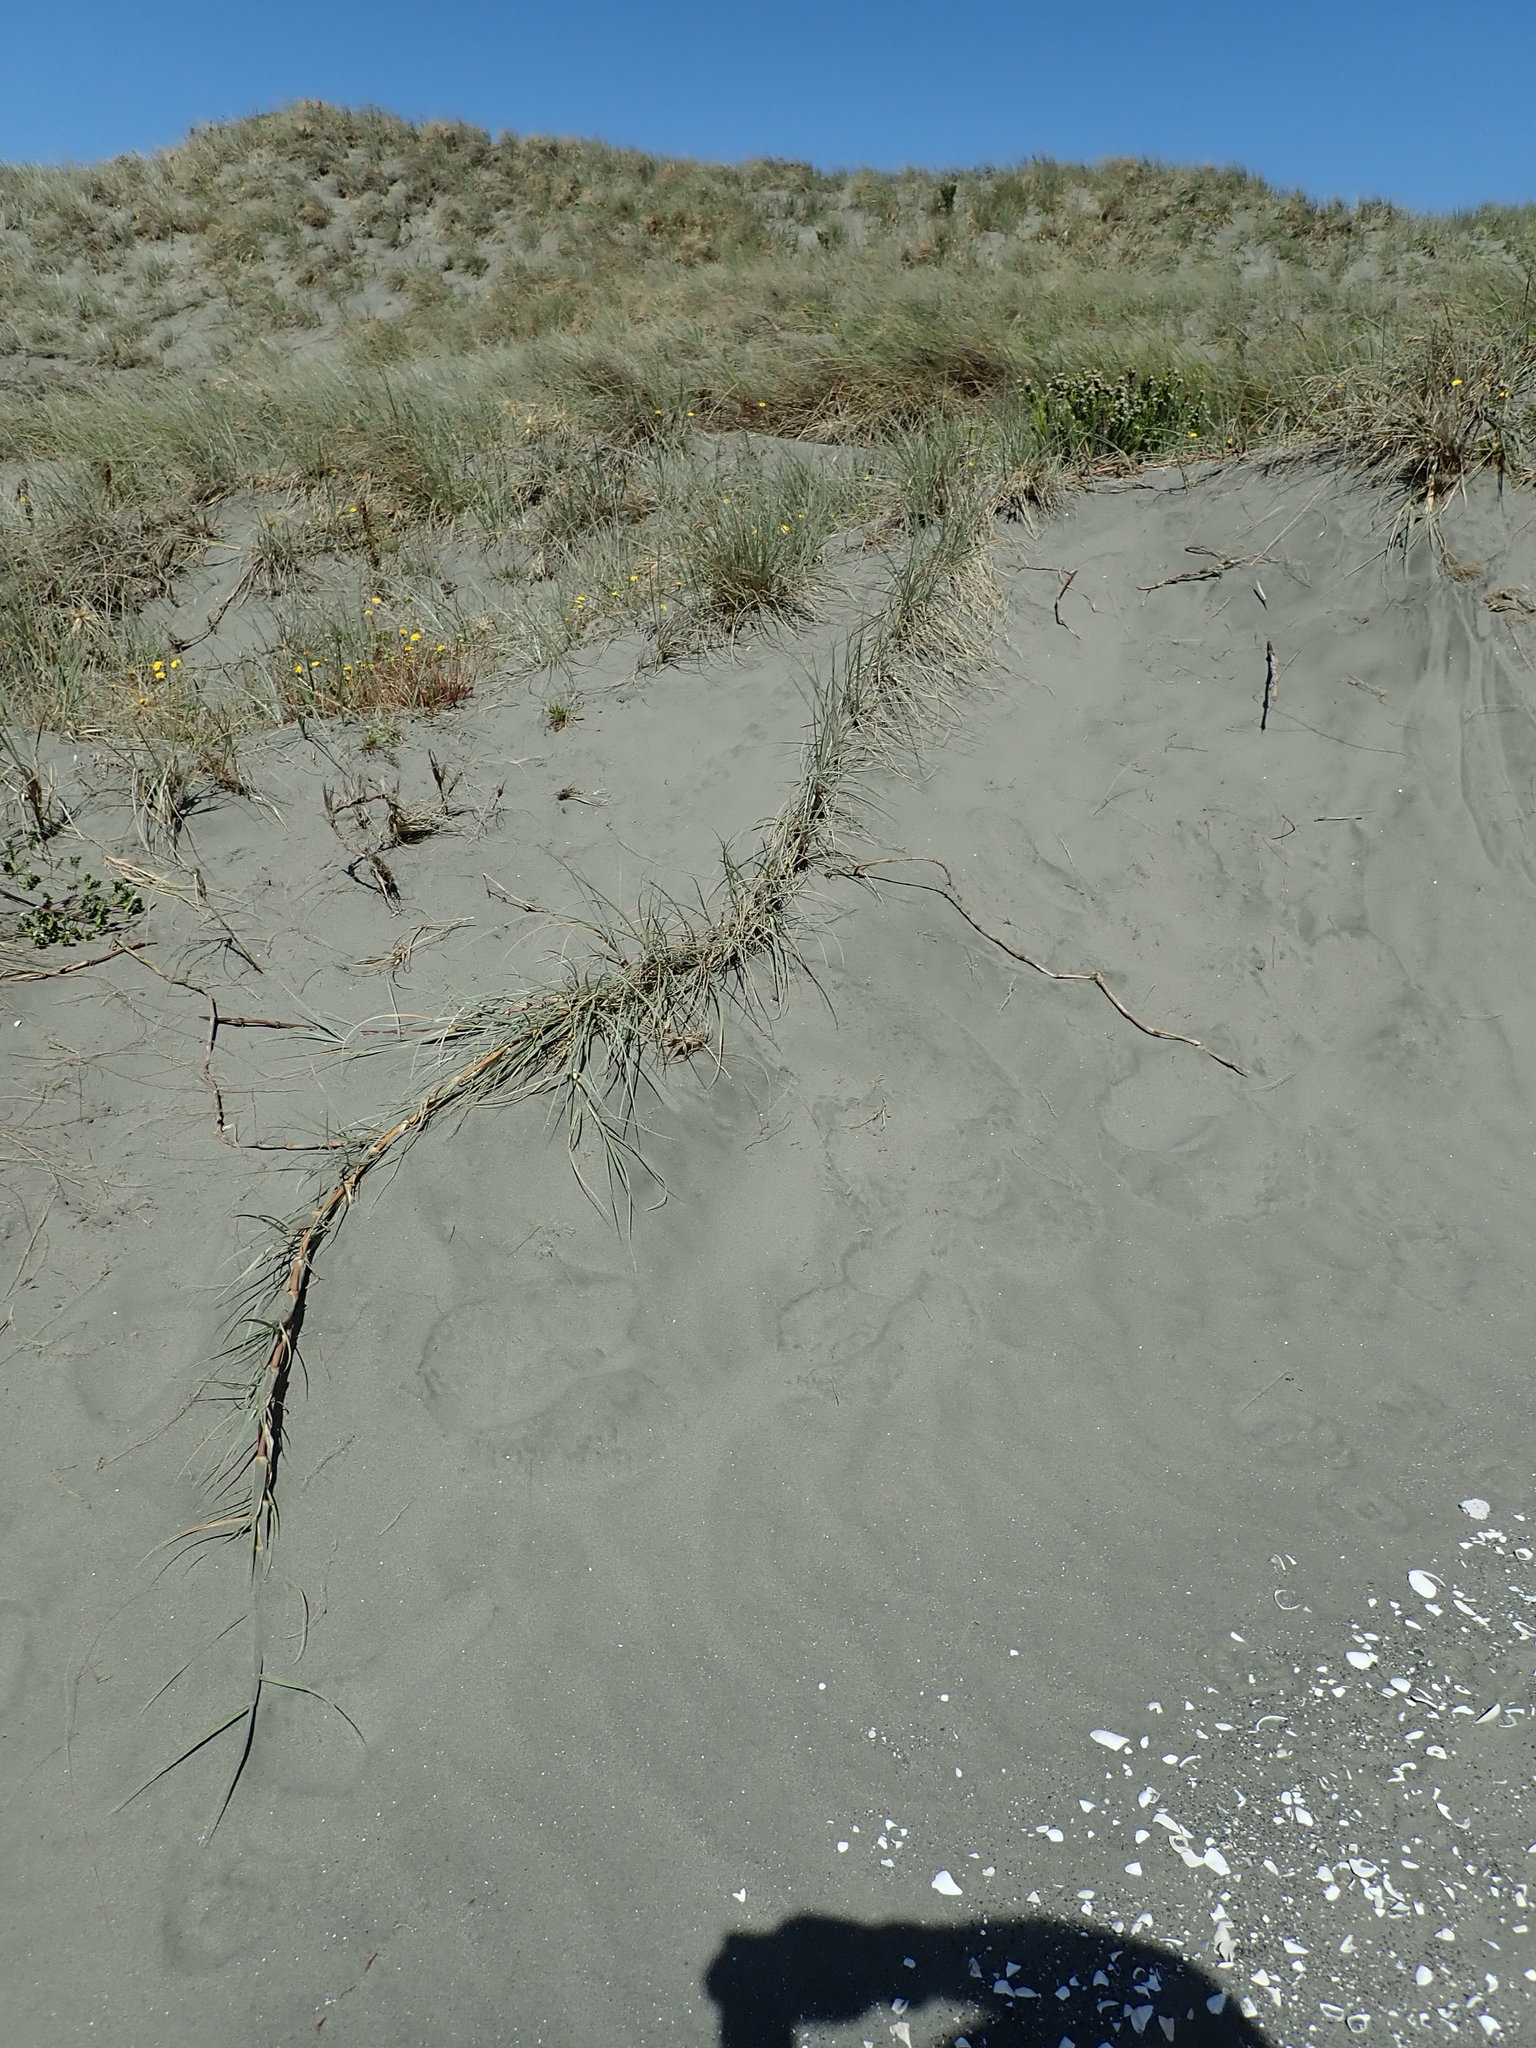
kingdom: Plantae
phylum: Tracheophyta
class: Liliopsida
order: Poales
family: Poaceae
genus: Spinifex
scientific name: Spinifex sericeus
